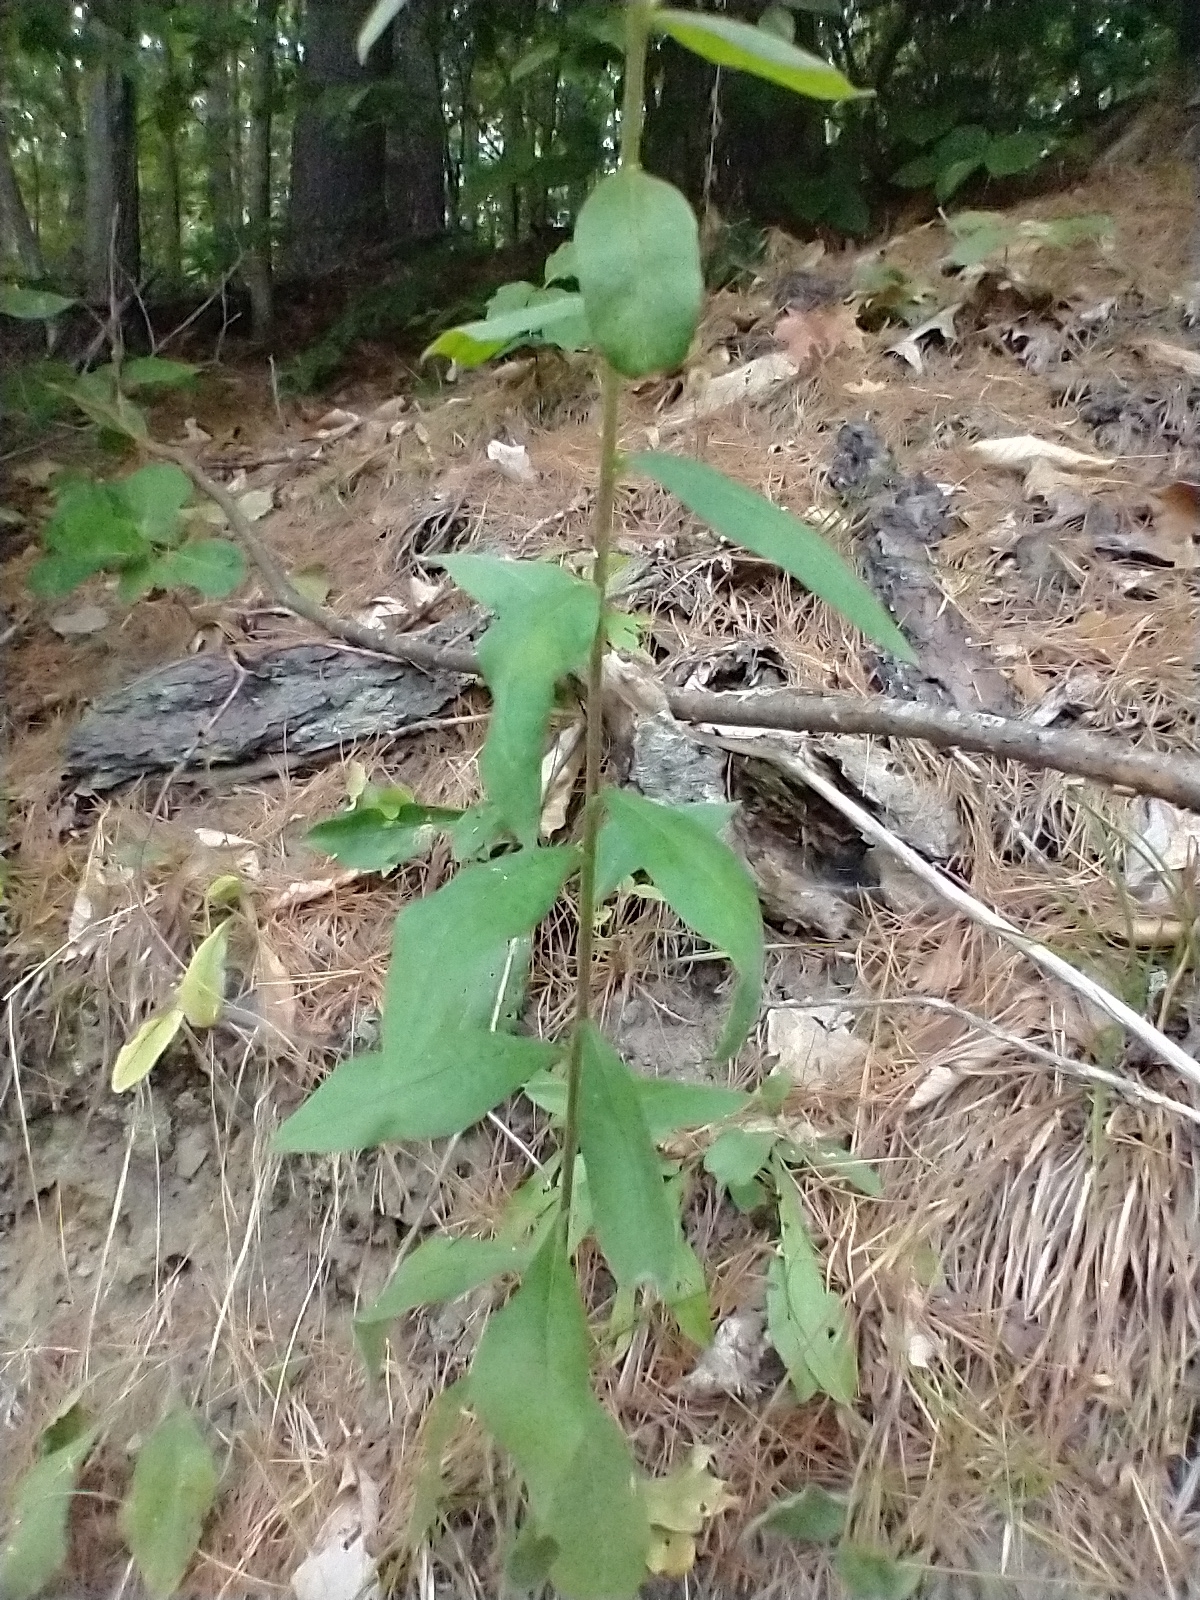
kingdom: Plantae
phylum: Tracheophyta
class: Magnoliopsida
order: Asterales
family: Asteraceae
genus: Solidago
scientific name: Solidago bicolor
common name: Silverrod
